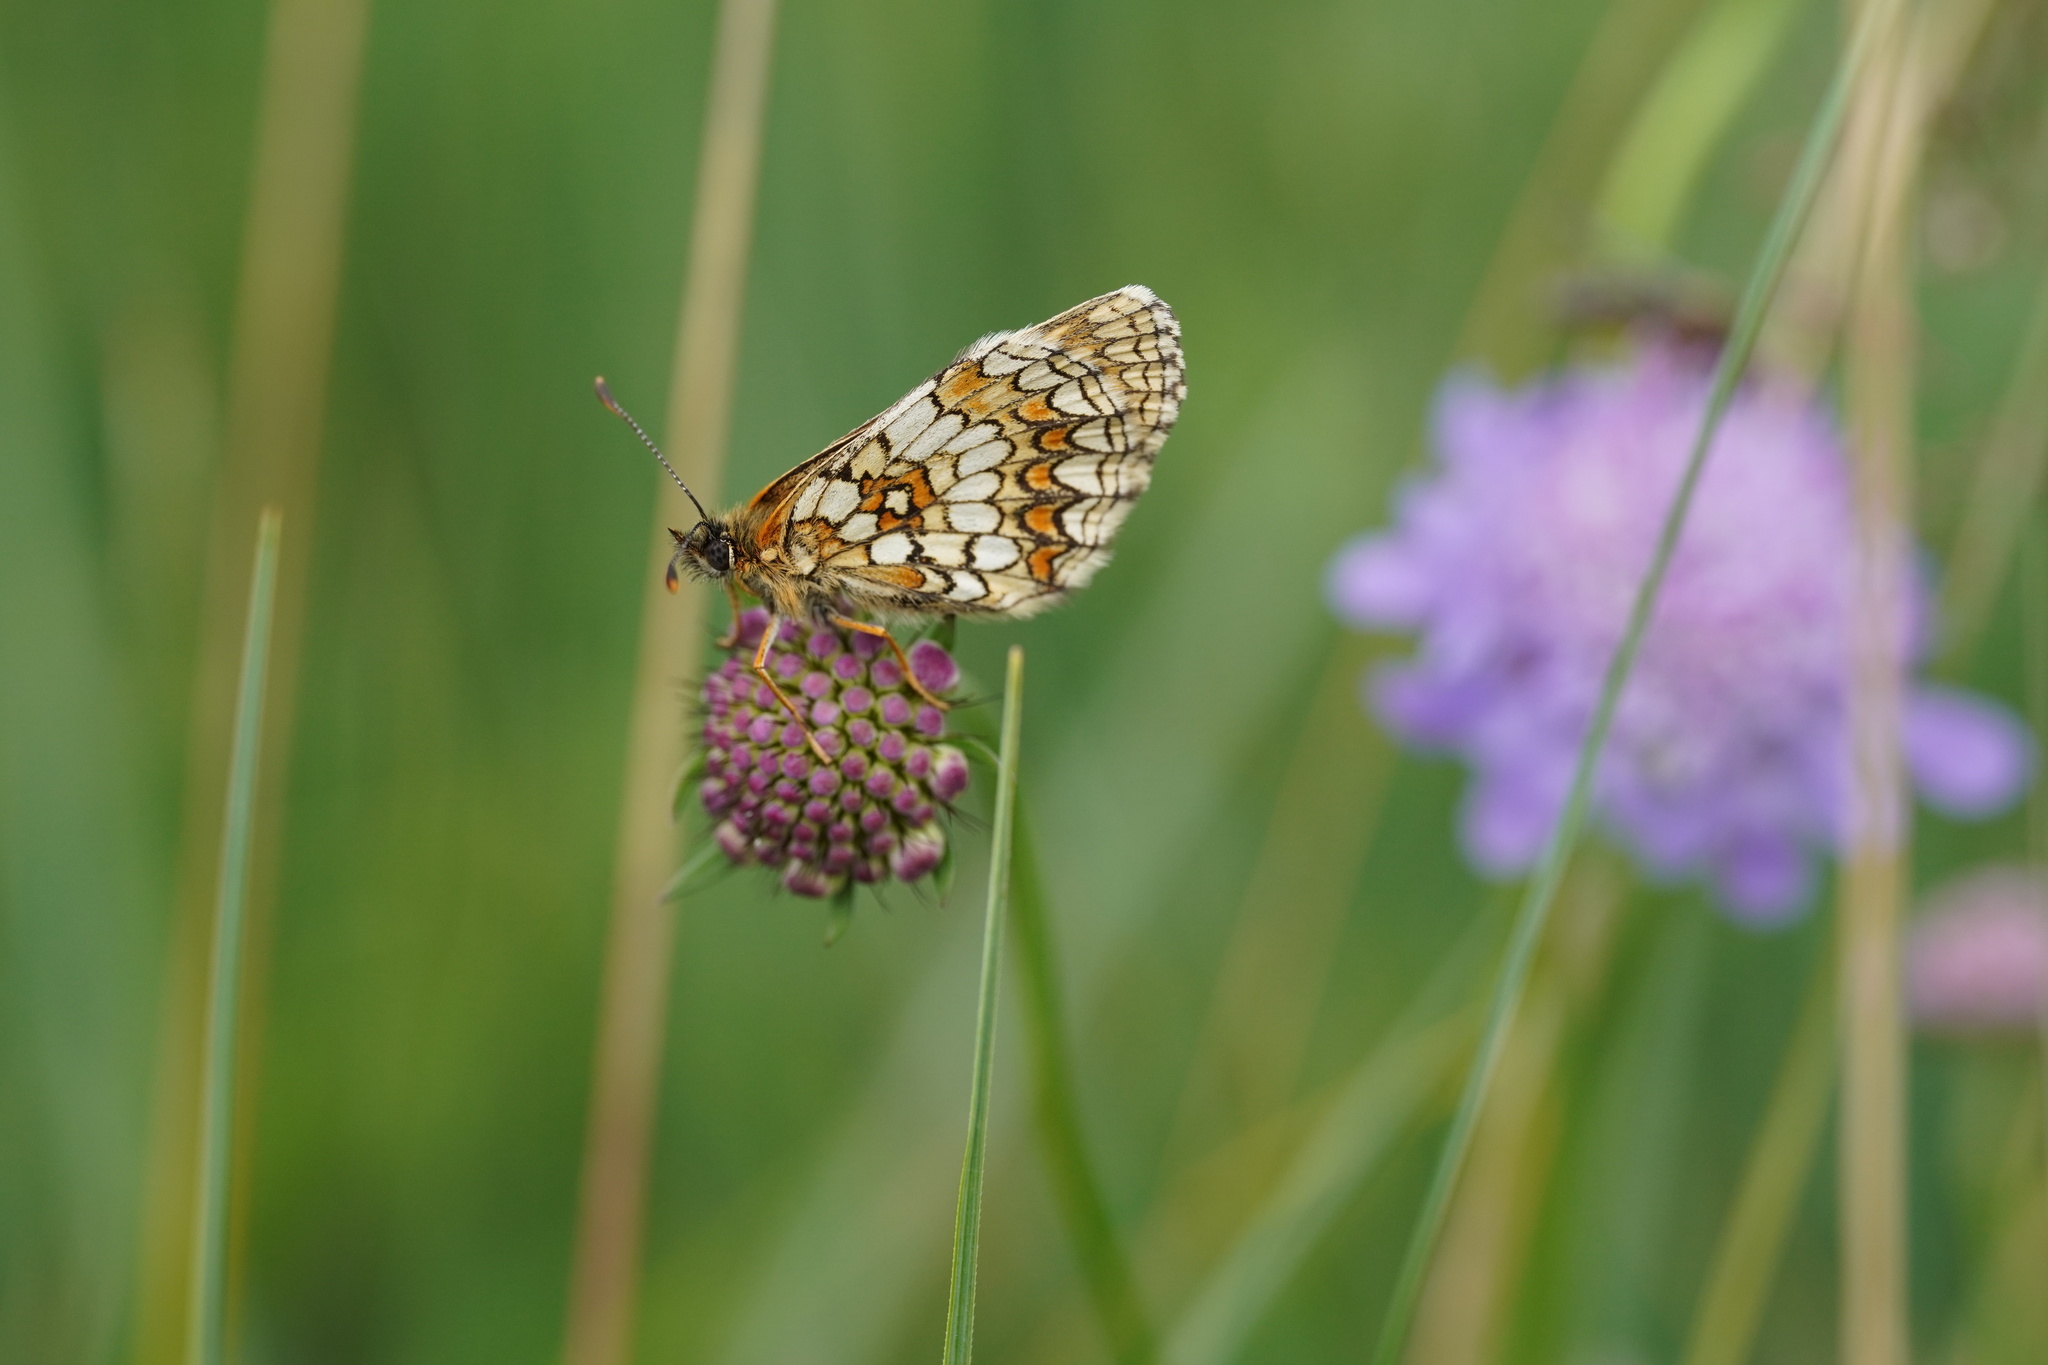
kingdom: Animalia
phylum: Arthropoda
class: Insecta
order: Lepidoptera
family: Nymphalidae
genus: Melitaea
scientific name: Melitaea athalia
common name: Heath fritillary
